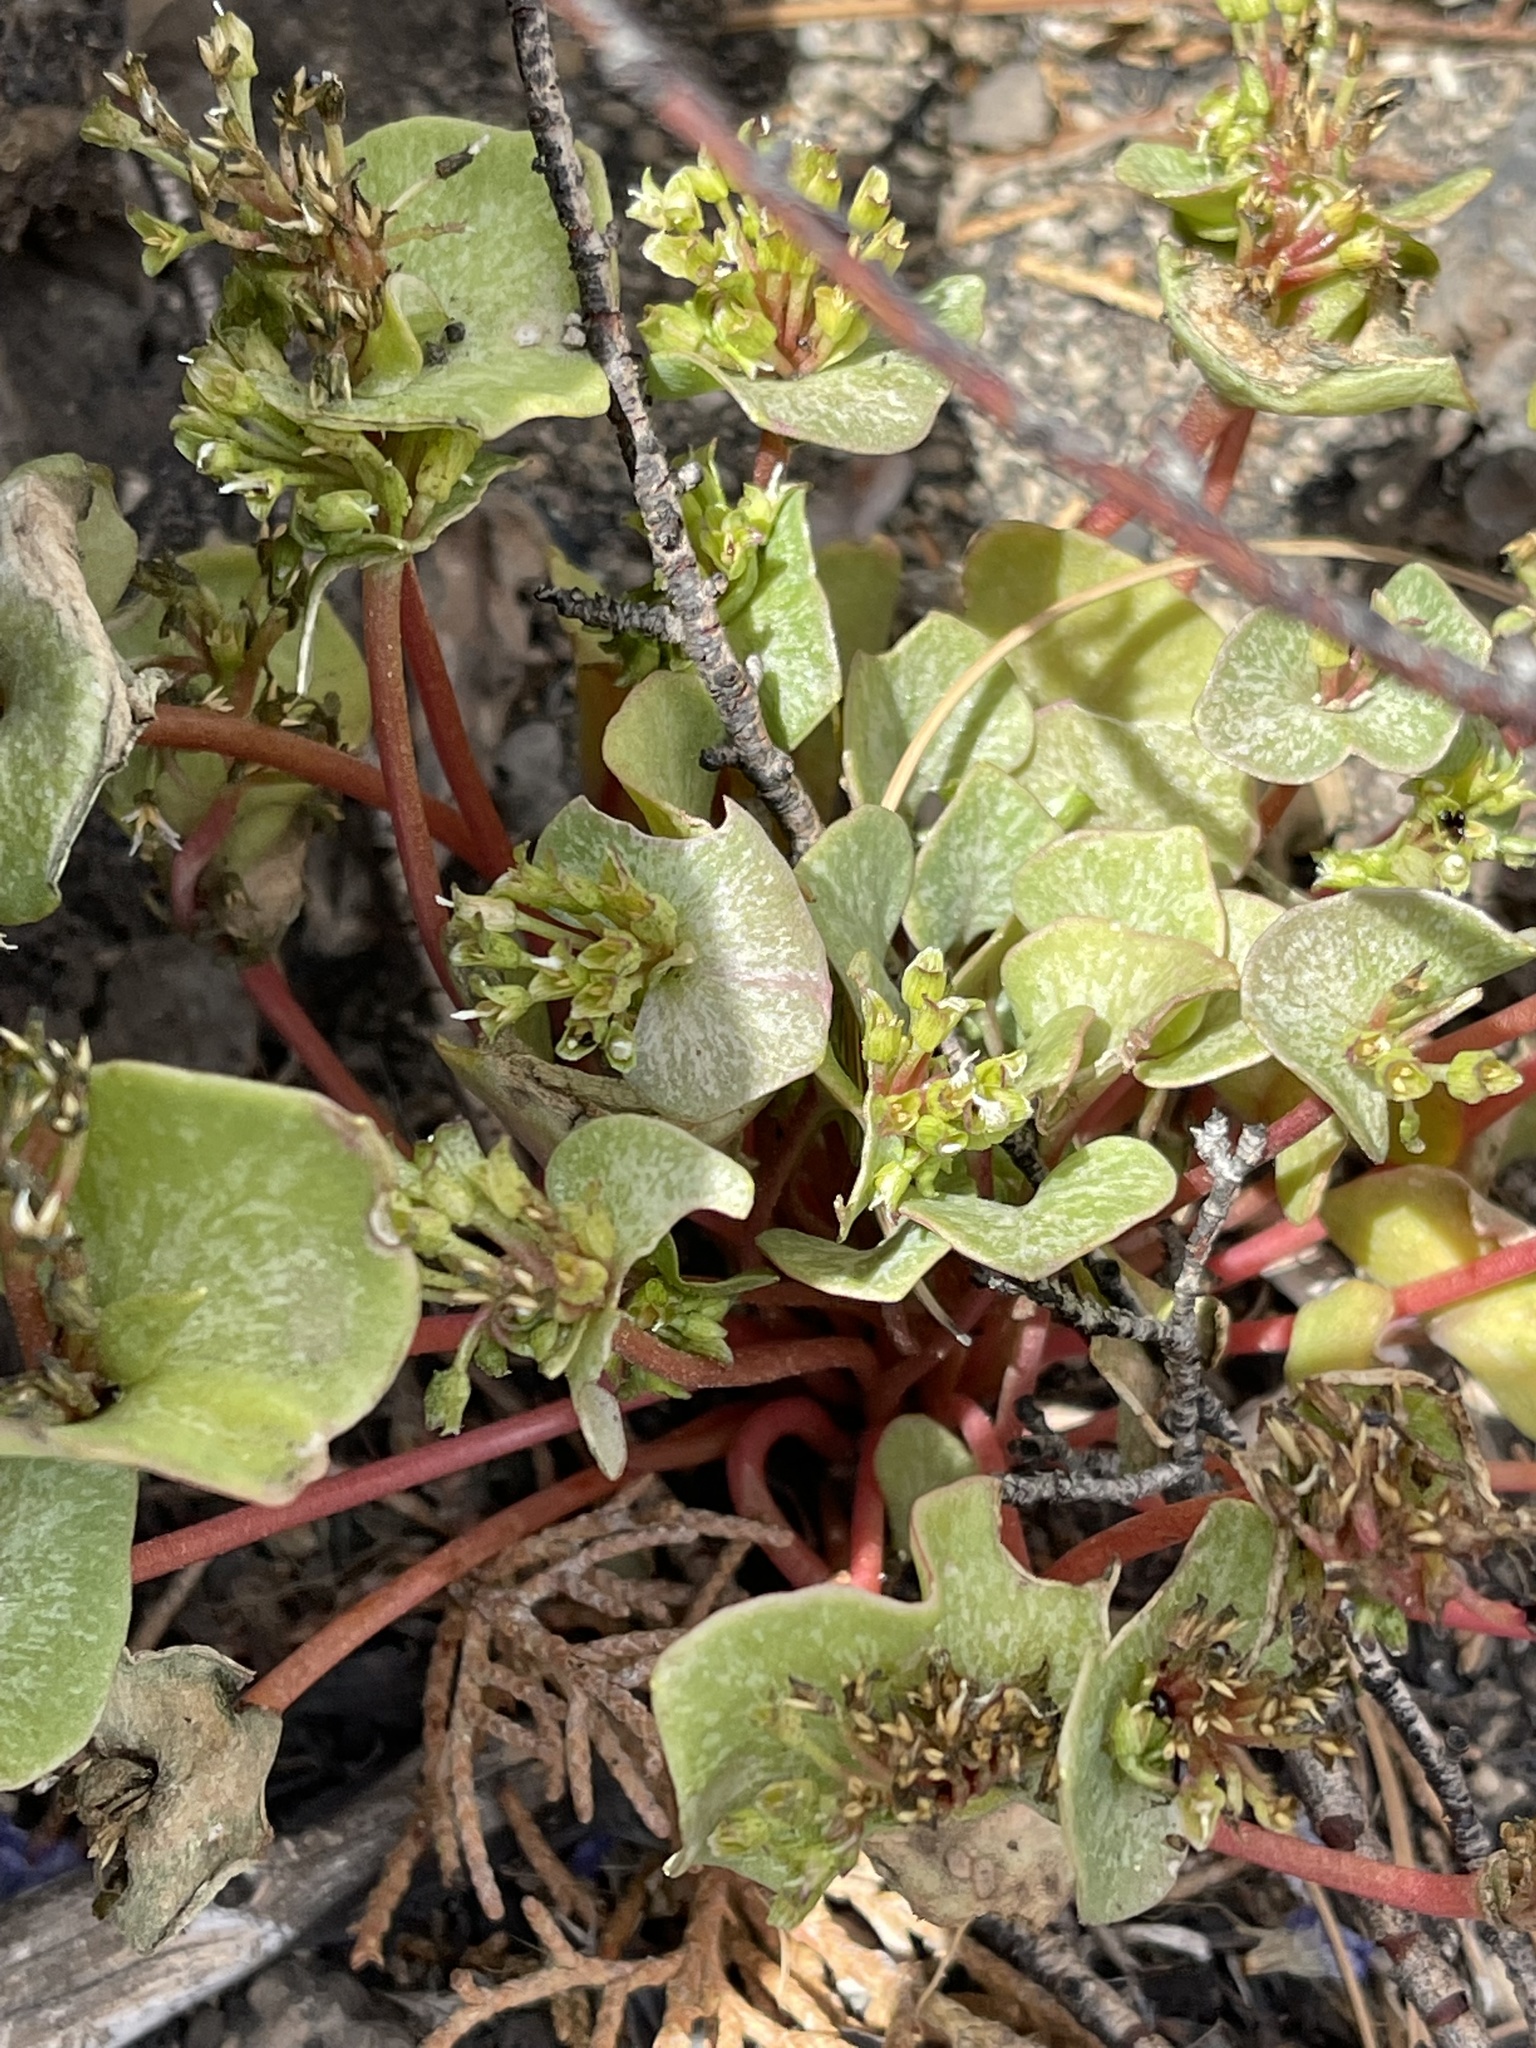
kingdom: Plantae
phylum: Tracheophyta
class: Magnoliopsida
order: Caryophyllales
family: Montiaceae
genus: Claytonia
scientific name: Claytonia rubra
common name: Erubescent miner's-lettuce
